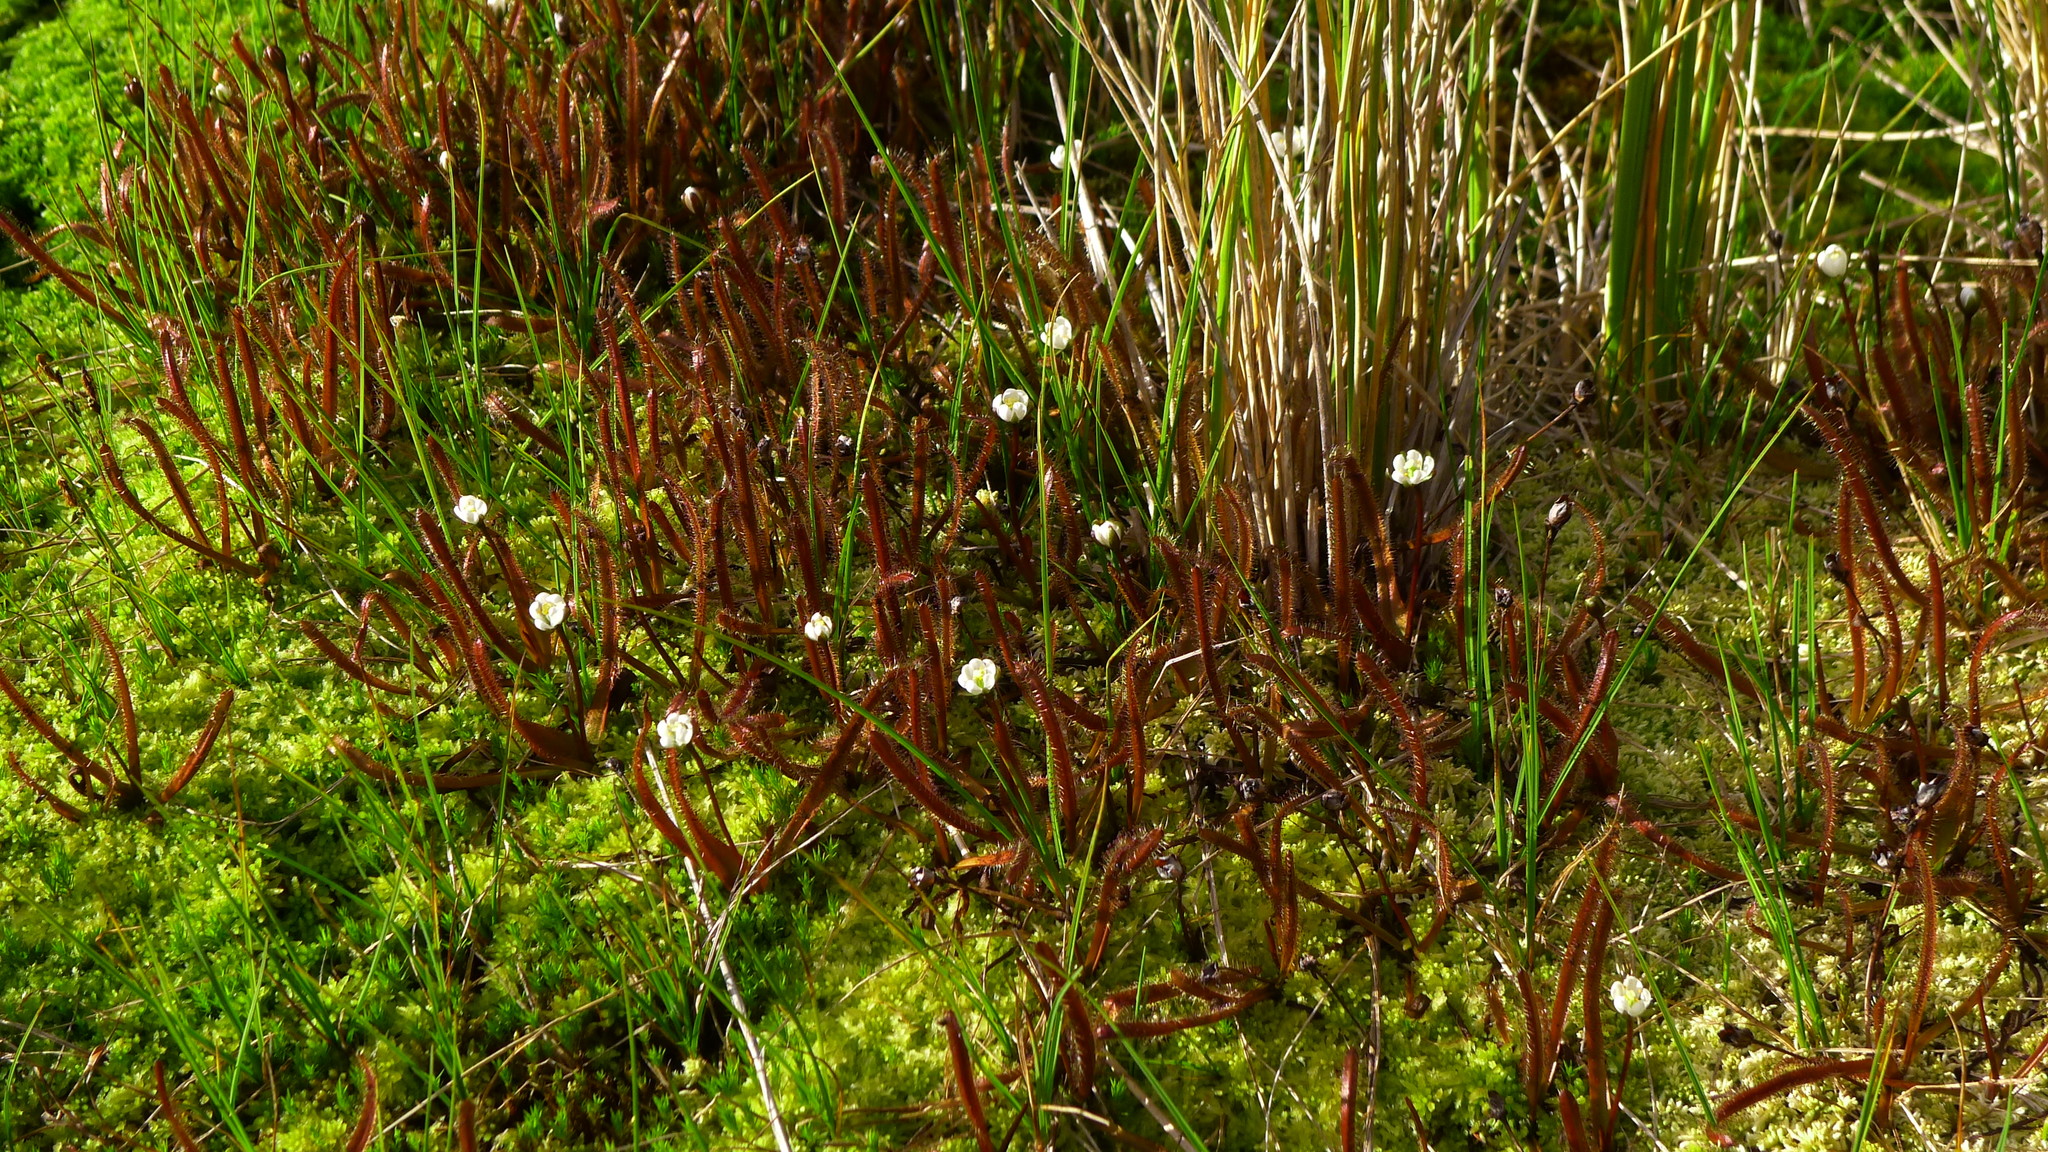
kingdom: Plantae
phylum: Tracheophyta
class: Magnoliopsida
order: Caryophyllales
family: Droseraceae
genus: Drosera
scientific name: Drosera arcturi
